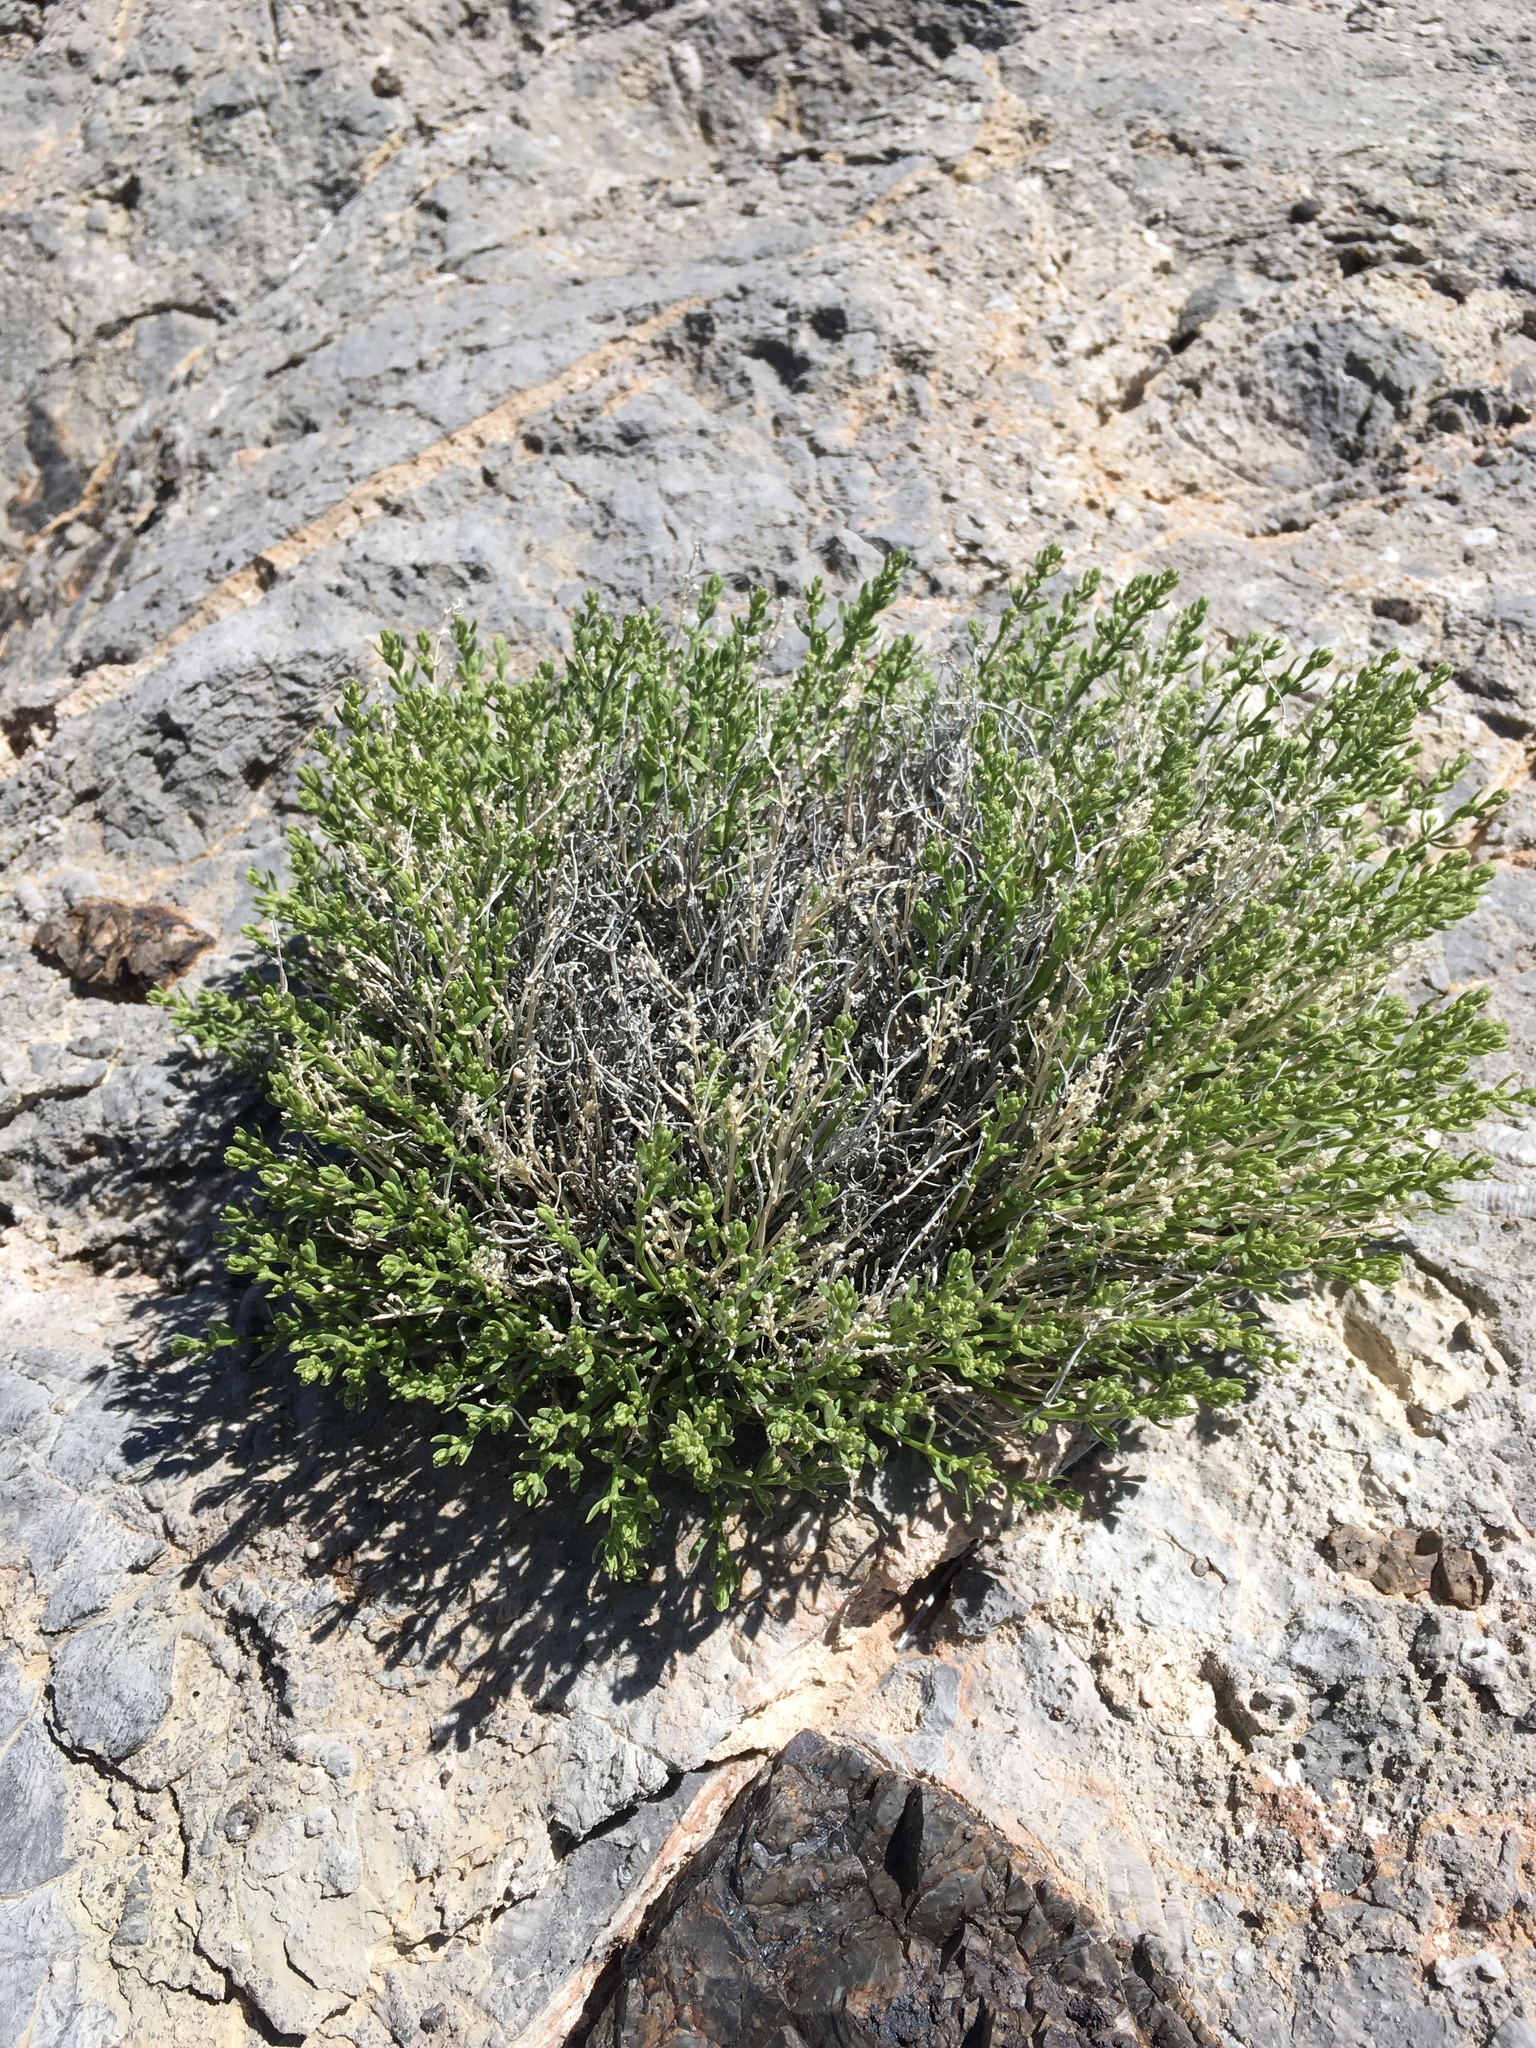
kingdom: Plantae
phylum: Tracheophyta
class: Magnoliopsida
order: Caryophyllales
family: Caryophyllaceae
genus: Scopulophila
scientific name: Scopulophila rixfordii
